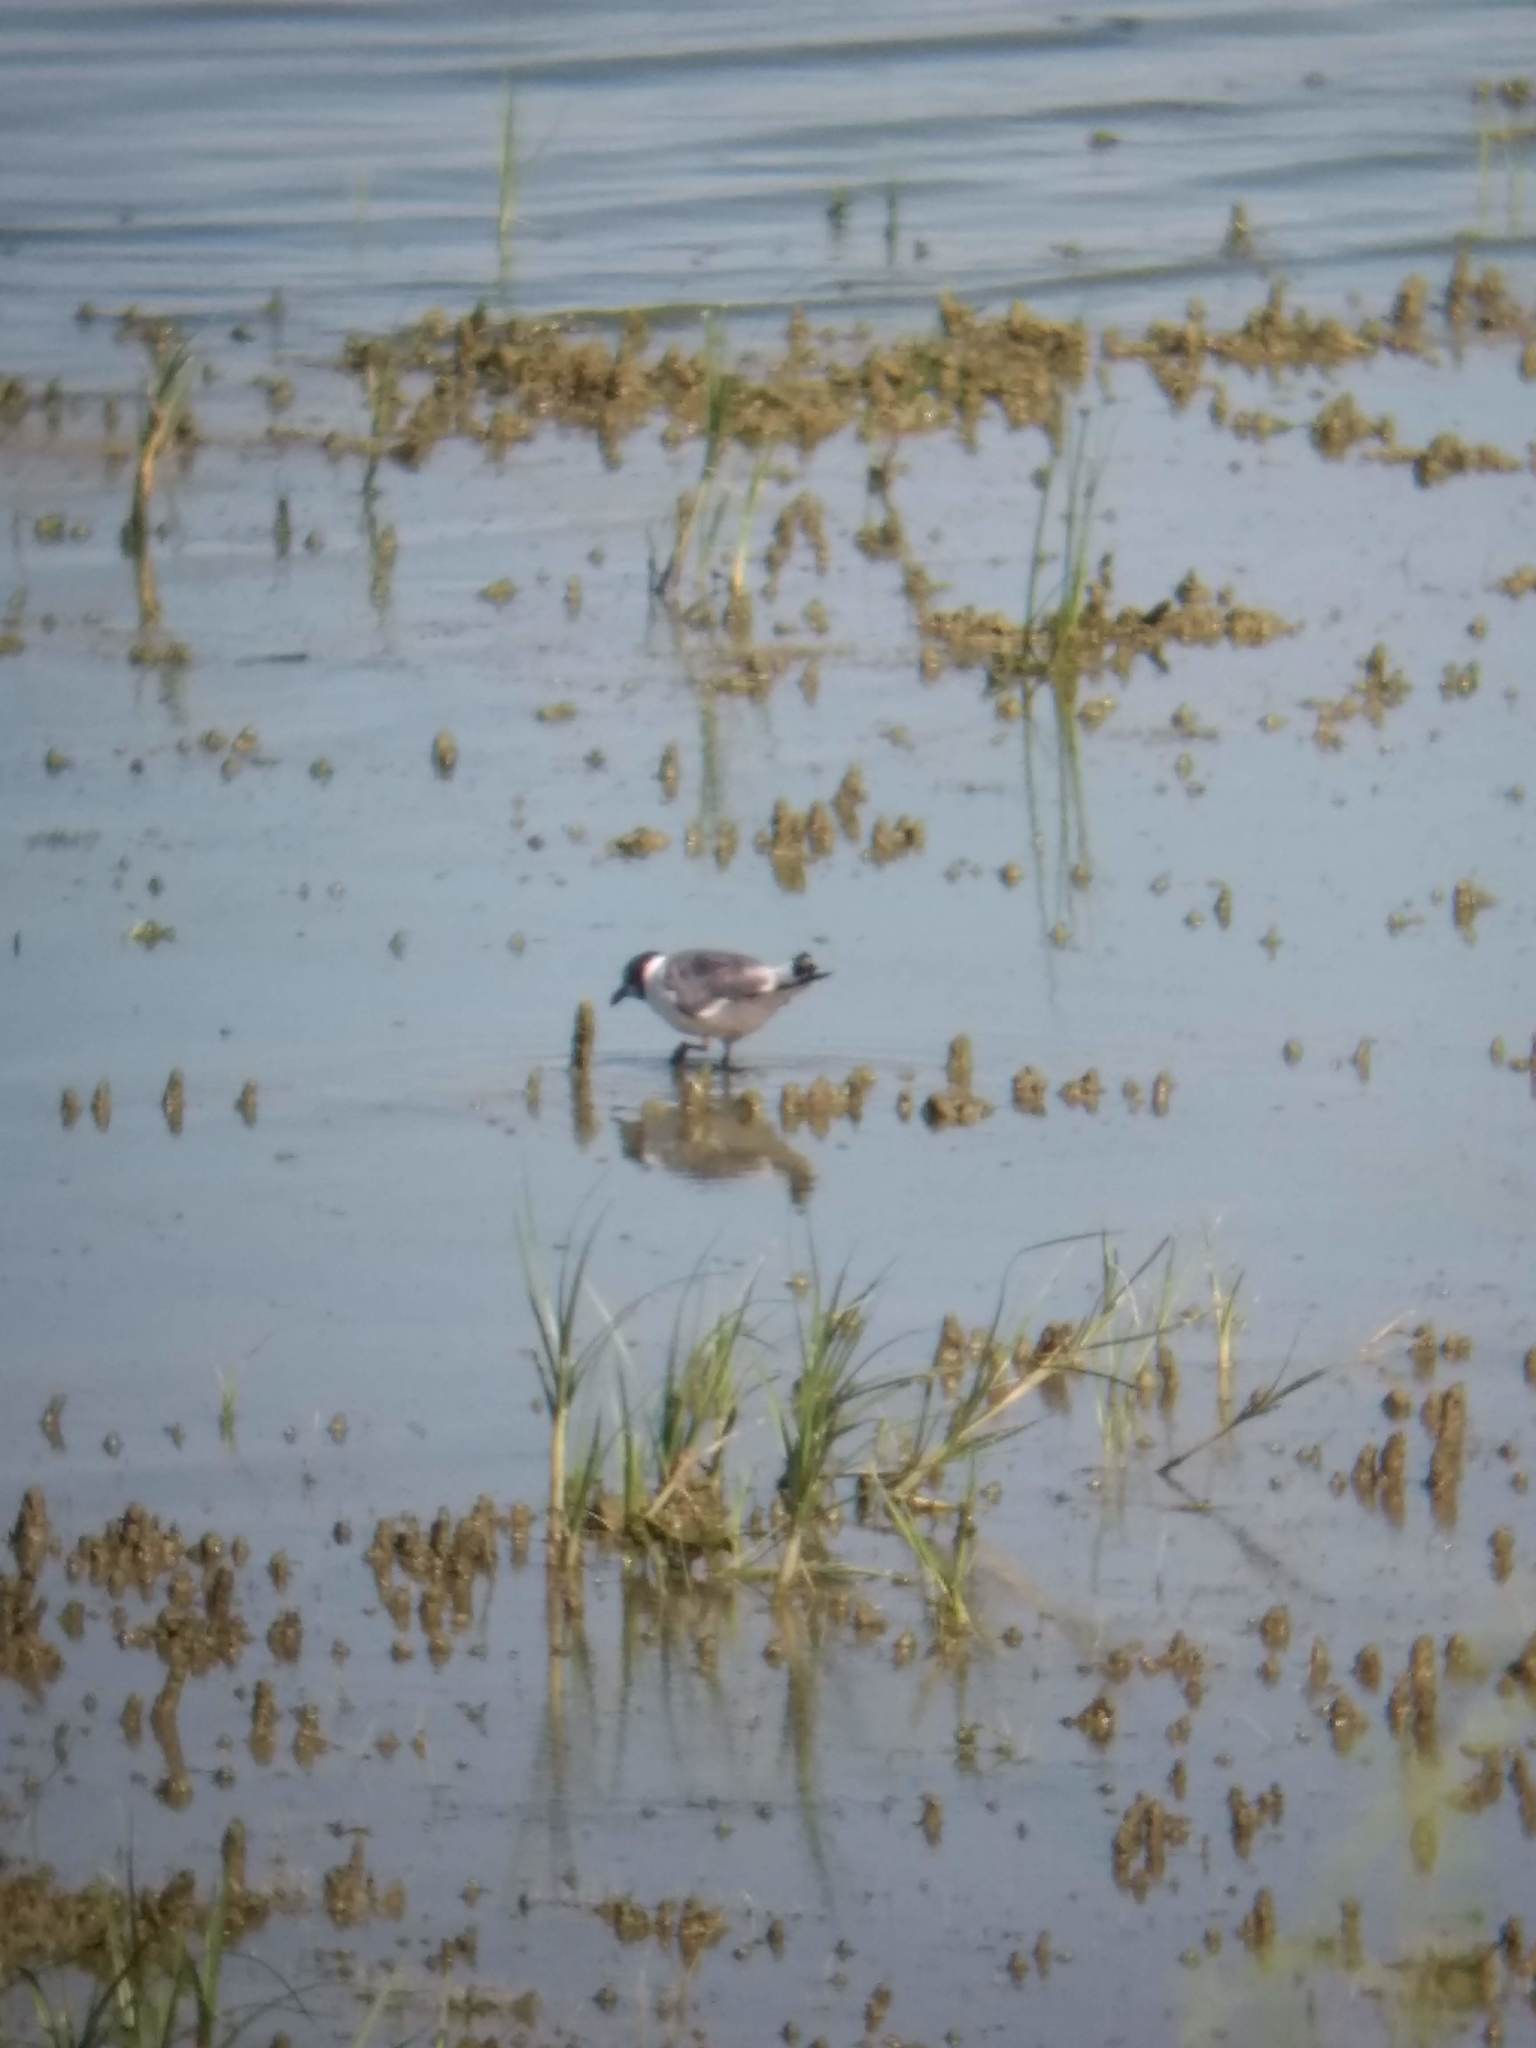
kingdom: Animalia
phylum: Chordata
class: Aves
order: Charadriiformes
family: Laridae
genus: Leucophaeus
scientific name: Leucophaeus pipixcan
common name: Franklin's gull
